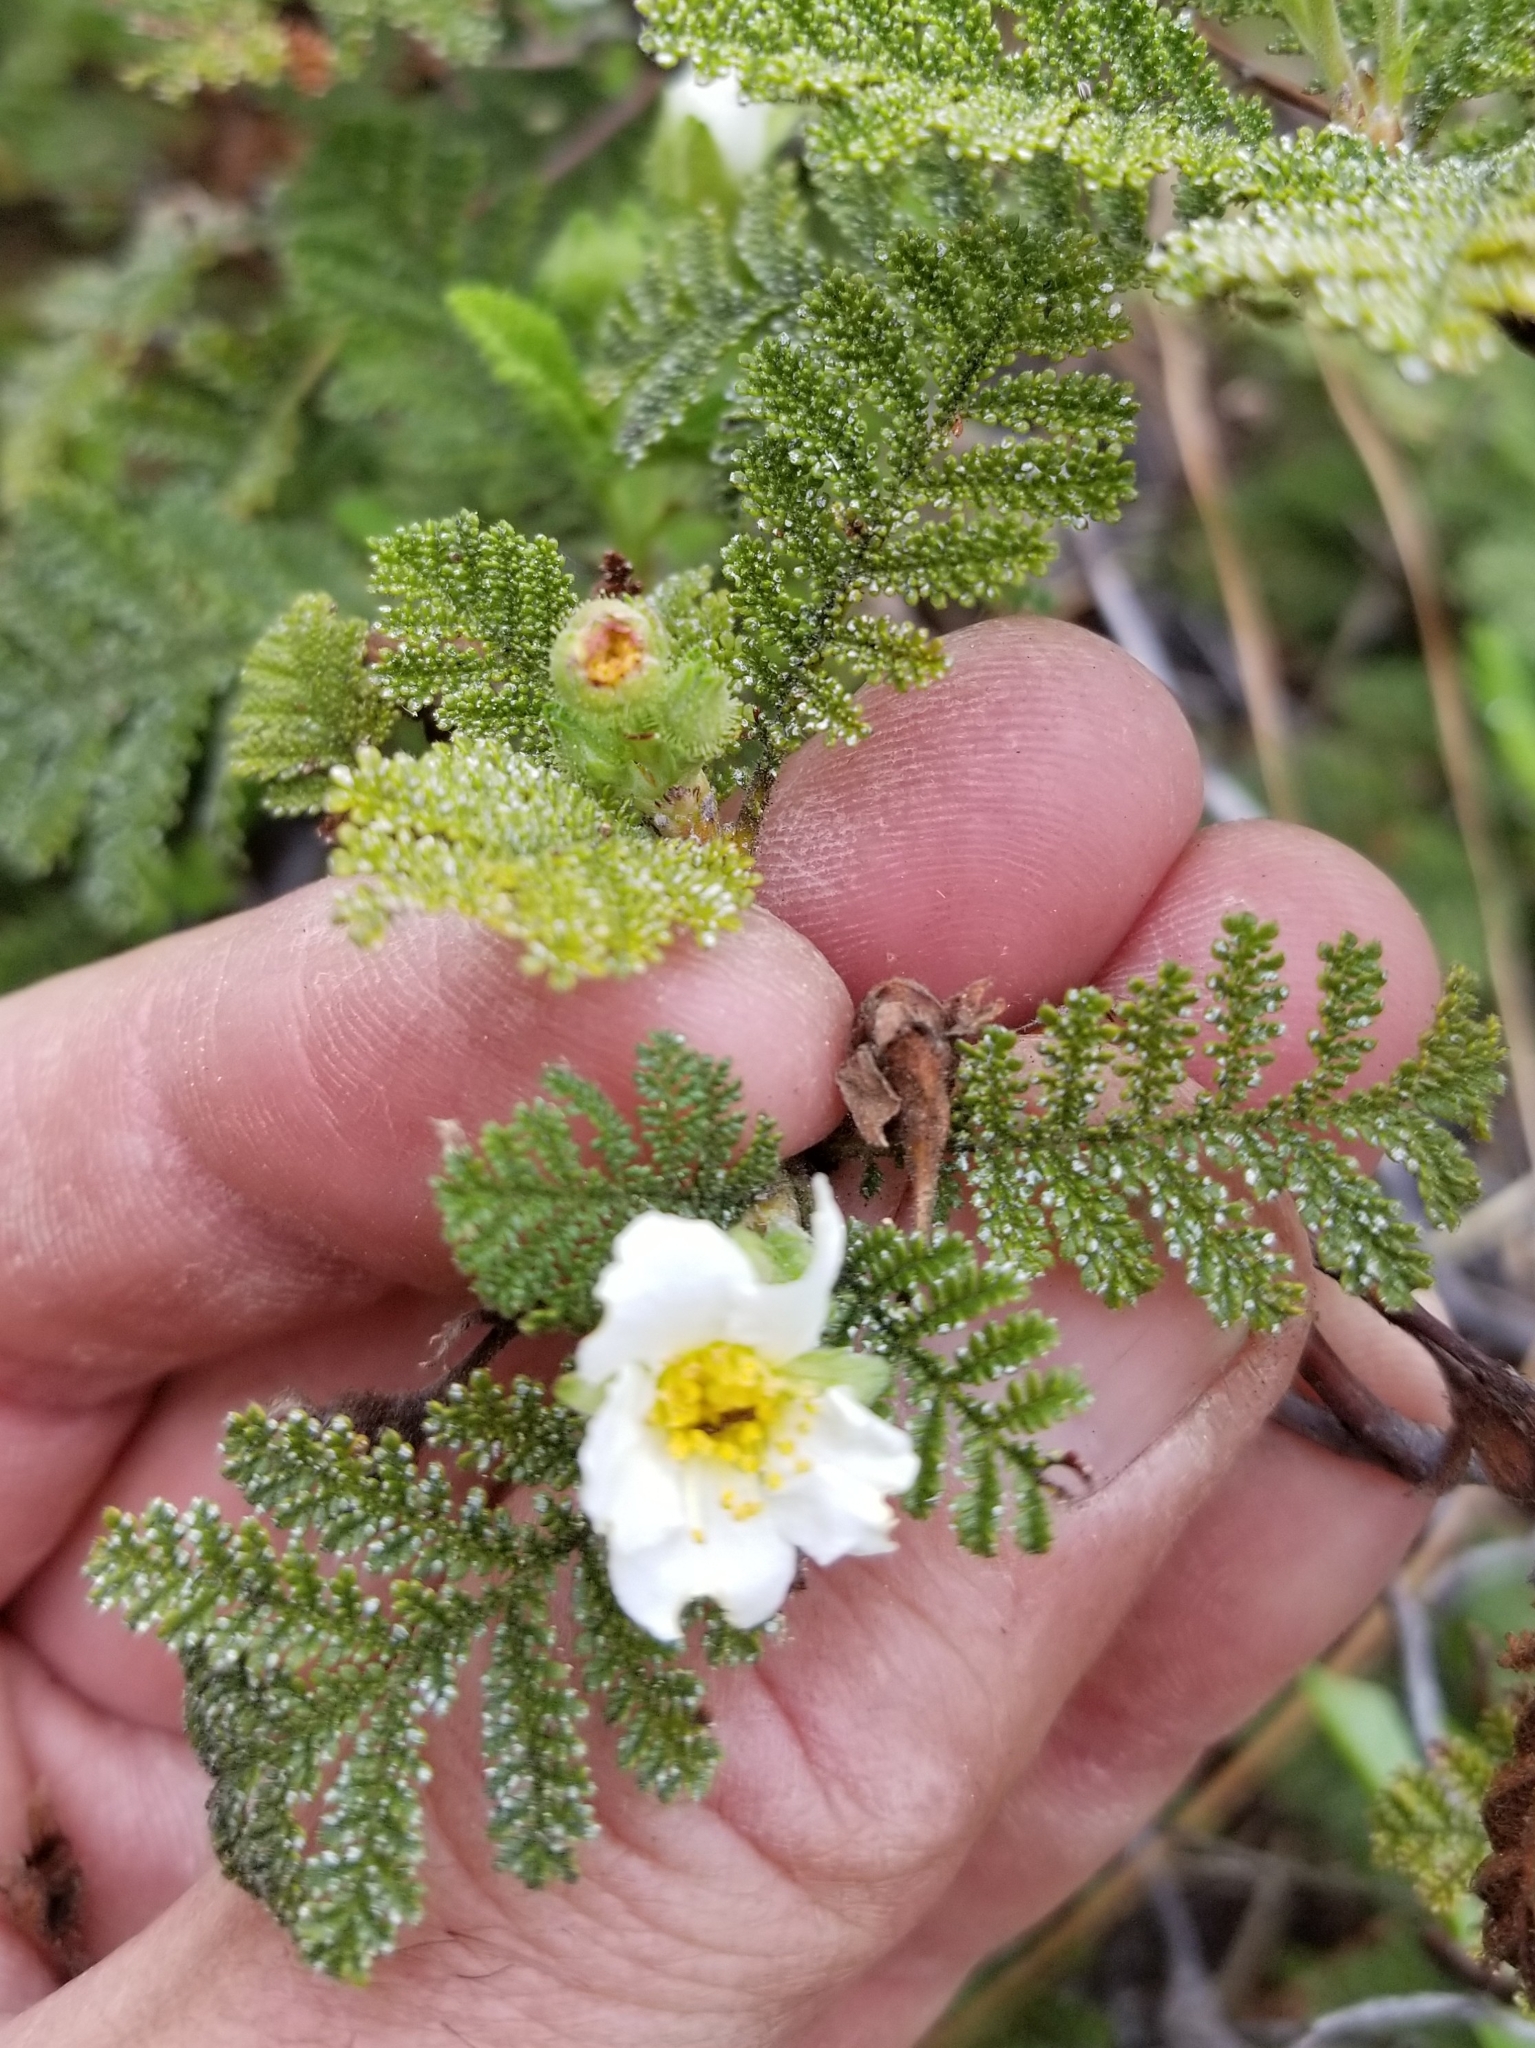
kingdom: Plantae
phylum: Tracheophyta
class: Magnoliopsida
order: Rosales
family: Rosaceae
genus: Chamaebatia
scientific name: Chamaebatia foliolosa
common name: Mountain misery
